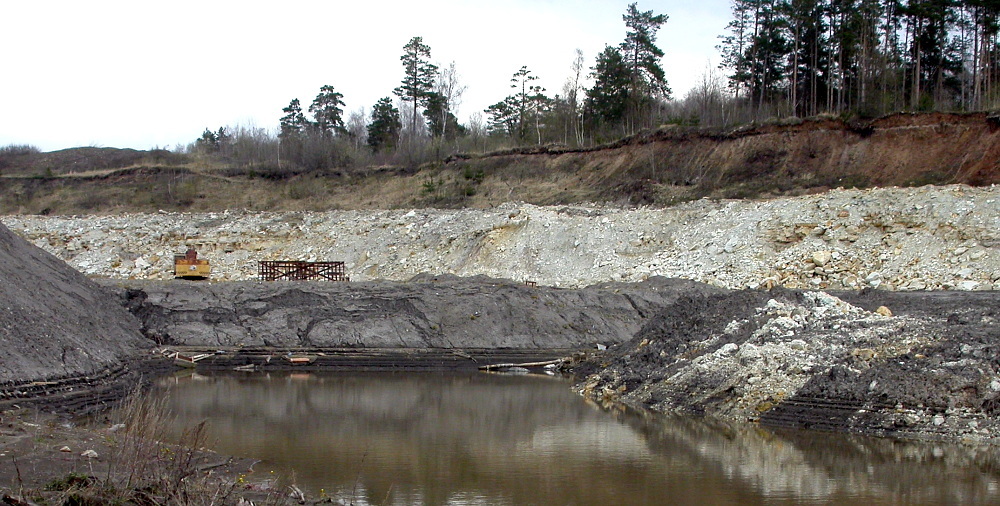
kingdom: Plantae
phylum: Tracheophyta
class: Pinopsida
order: Pinales
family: Pinaceae
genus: Pinus
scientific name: Pinus sylvestris
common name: Scots pine
